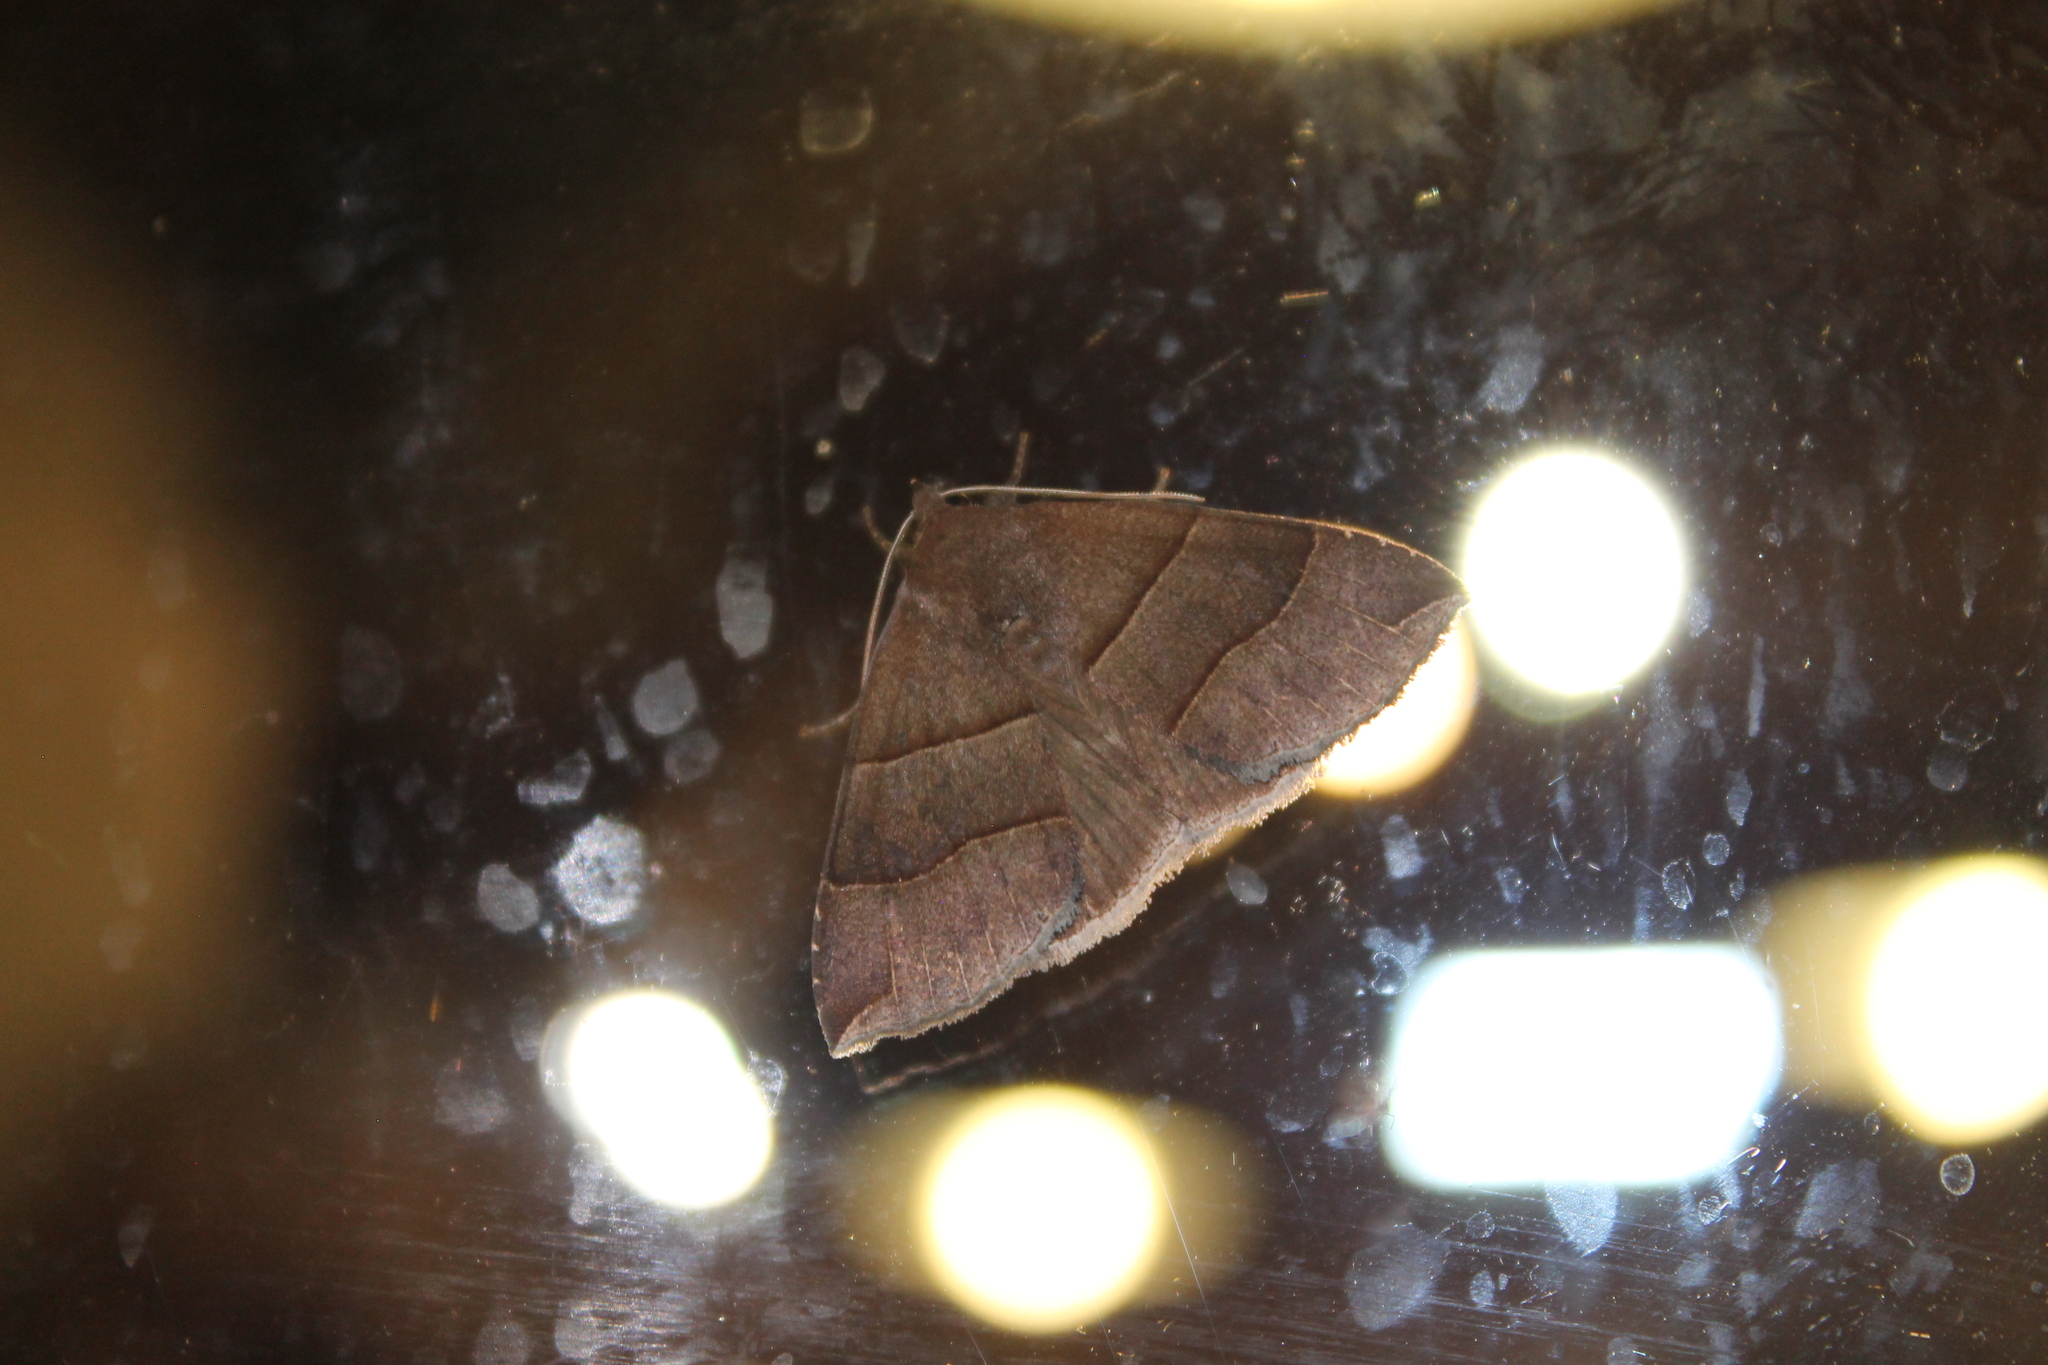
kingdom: Animalia
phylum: Arthropoda
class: Insecta
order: Lepidoptera
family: Erebidae
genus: Parallelia
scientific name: Parallelia bistriaris
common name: Maple looper moth
